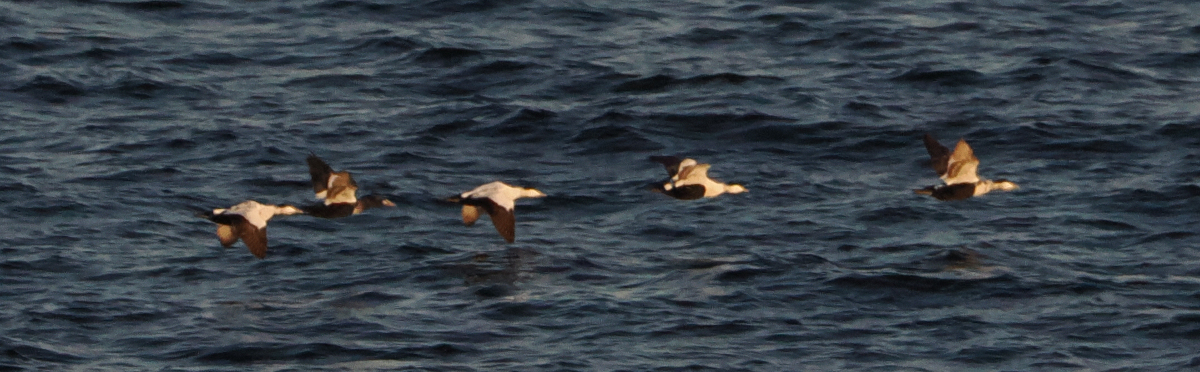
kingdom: Animalia
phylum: Chordata
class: Aves
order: Anseriformes
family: Anatidae
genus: Somateria
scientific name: Somateria mollissima
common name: Common eider
